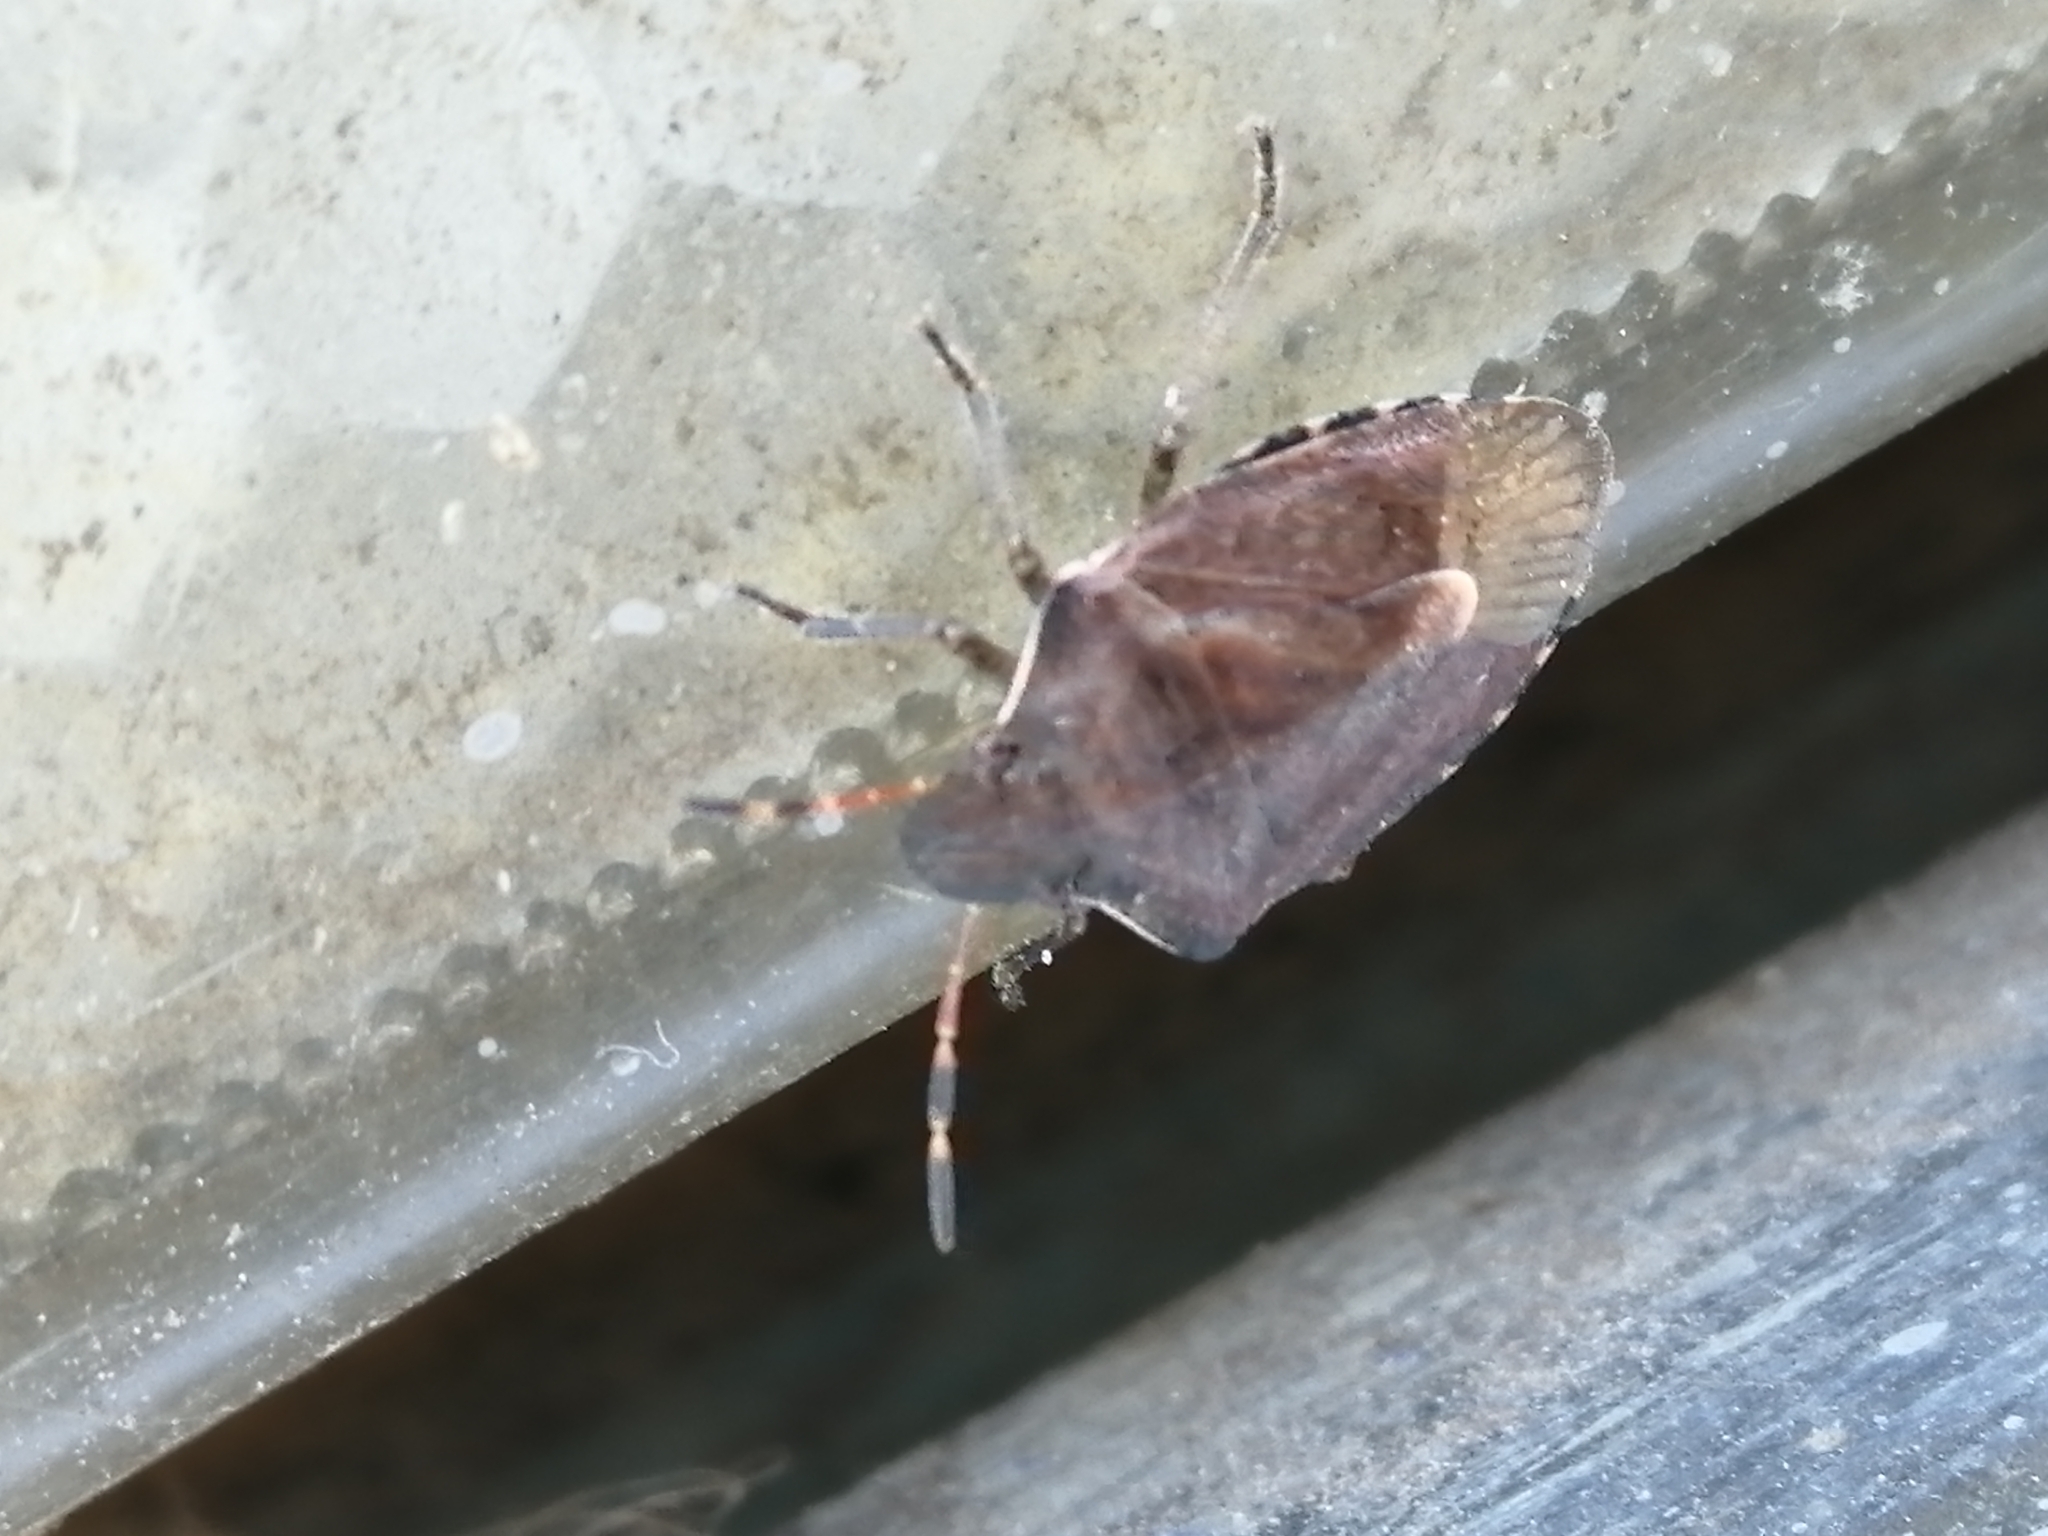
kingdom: Animalia
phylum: Arthropoda
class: Insecta
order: Hemiptera
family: Pentatomidae
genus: Holcostethus
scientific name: Holcostethus strictus
